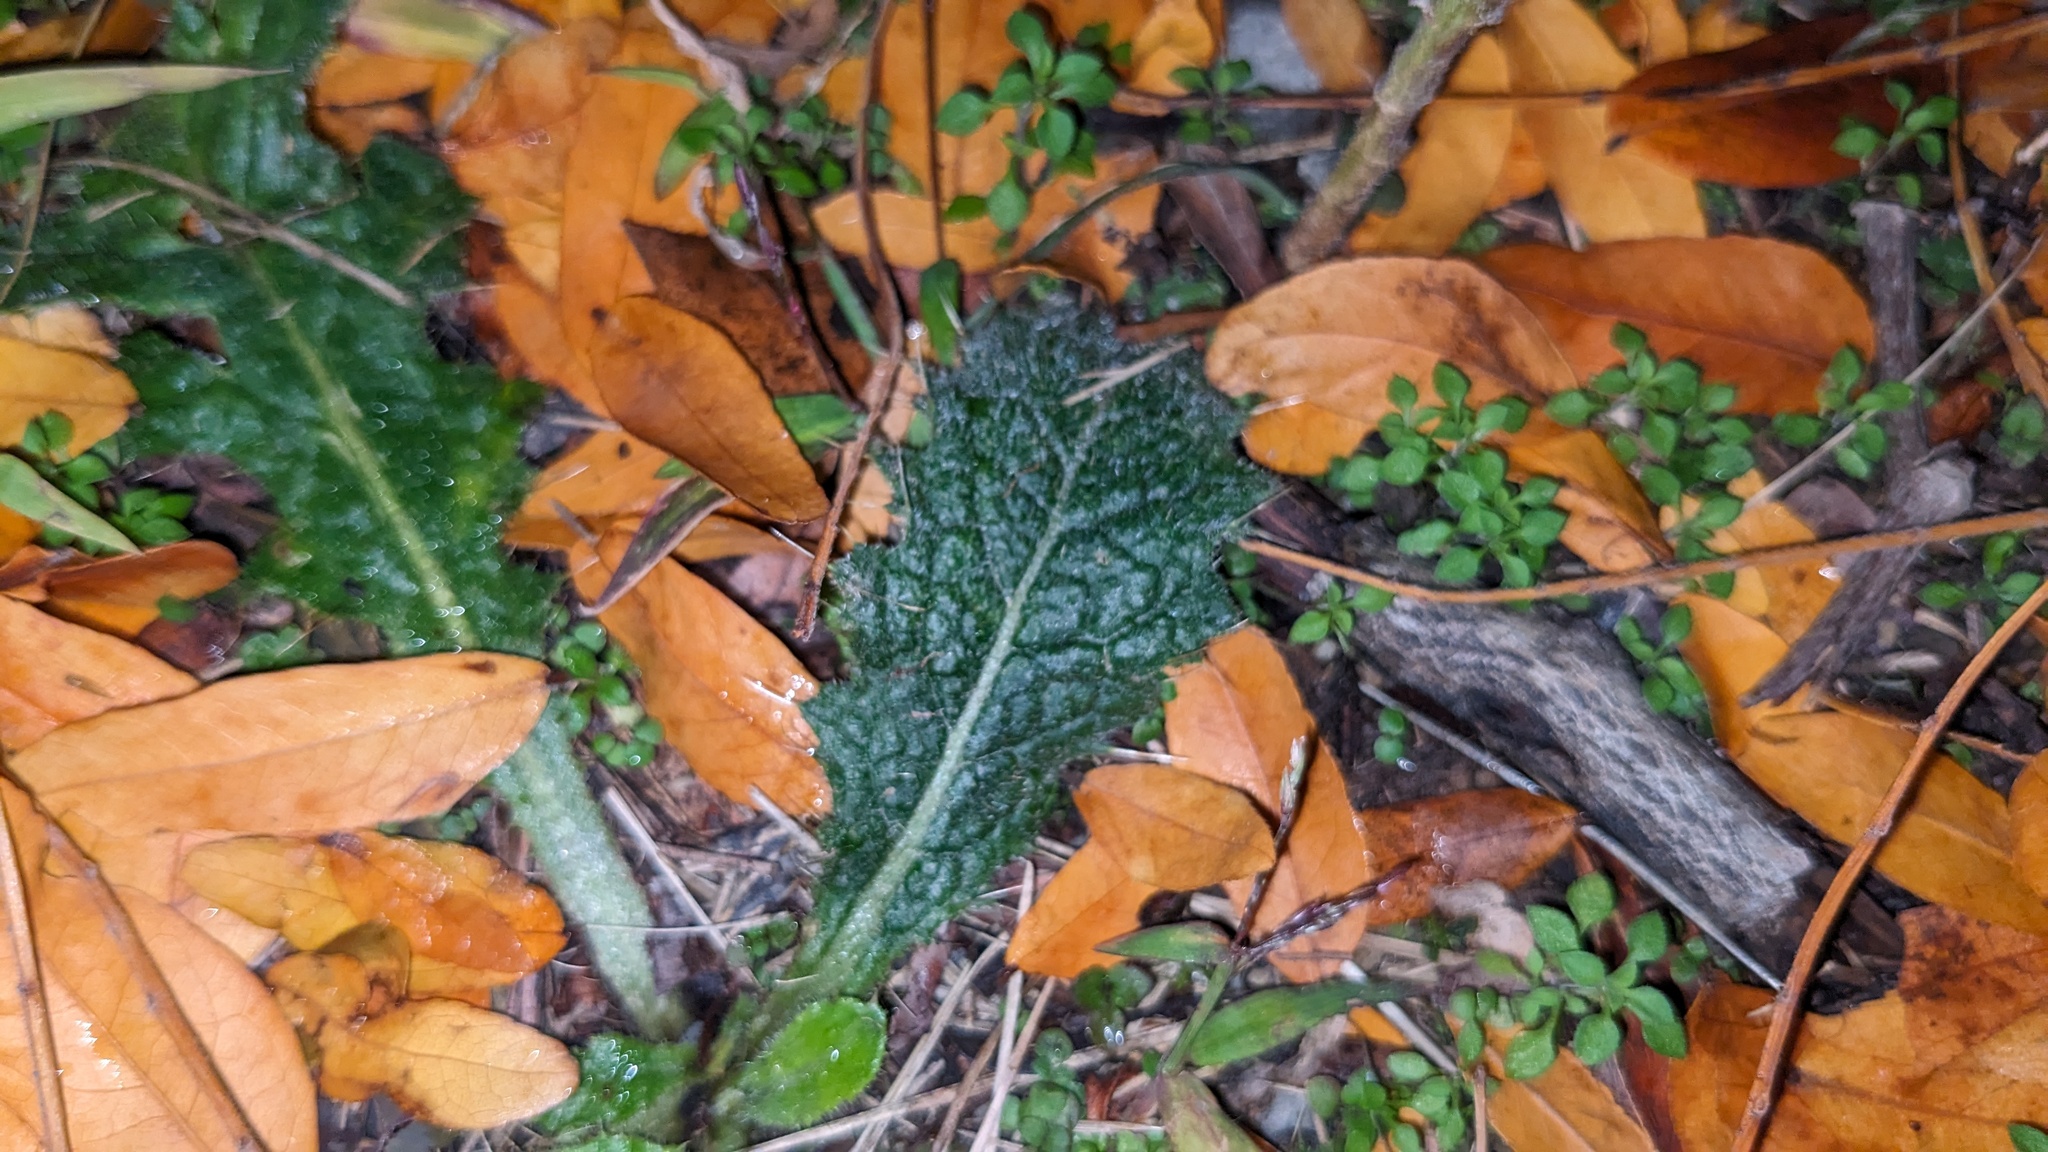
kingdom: Plantae
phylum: Tracheophyta
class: Magnoliopsida
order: Asterales
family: Asteraceae
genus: Cirsium
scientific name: Cirsium vulgare
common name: Bull thistle
